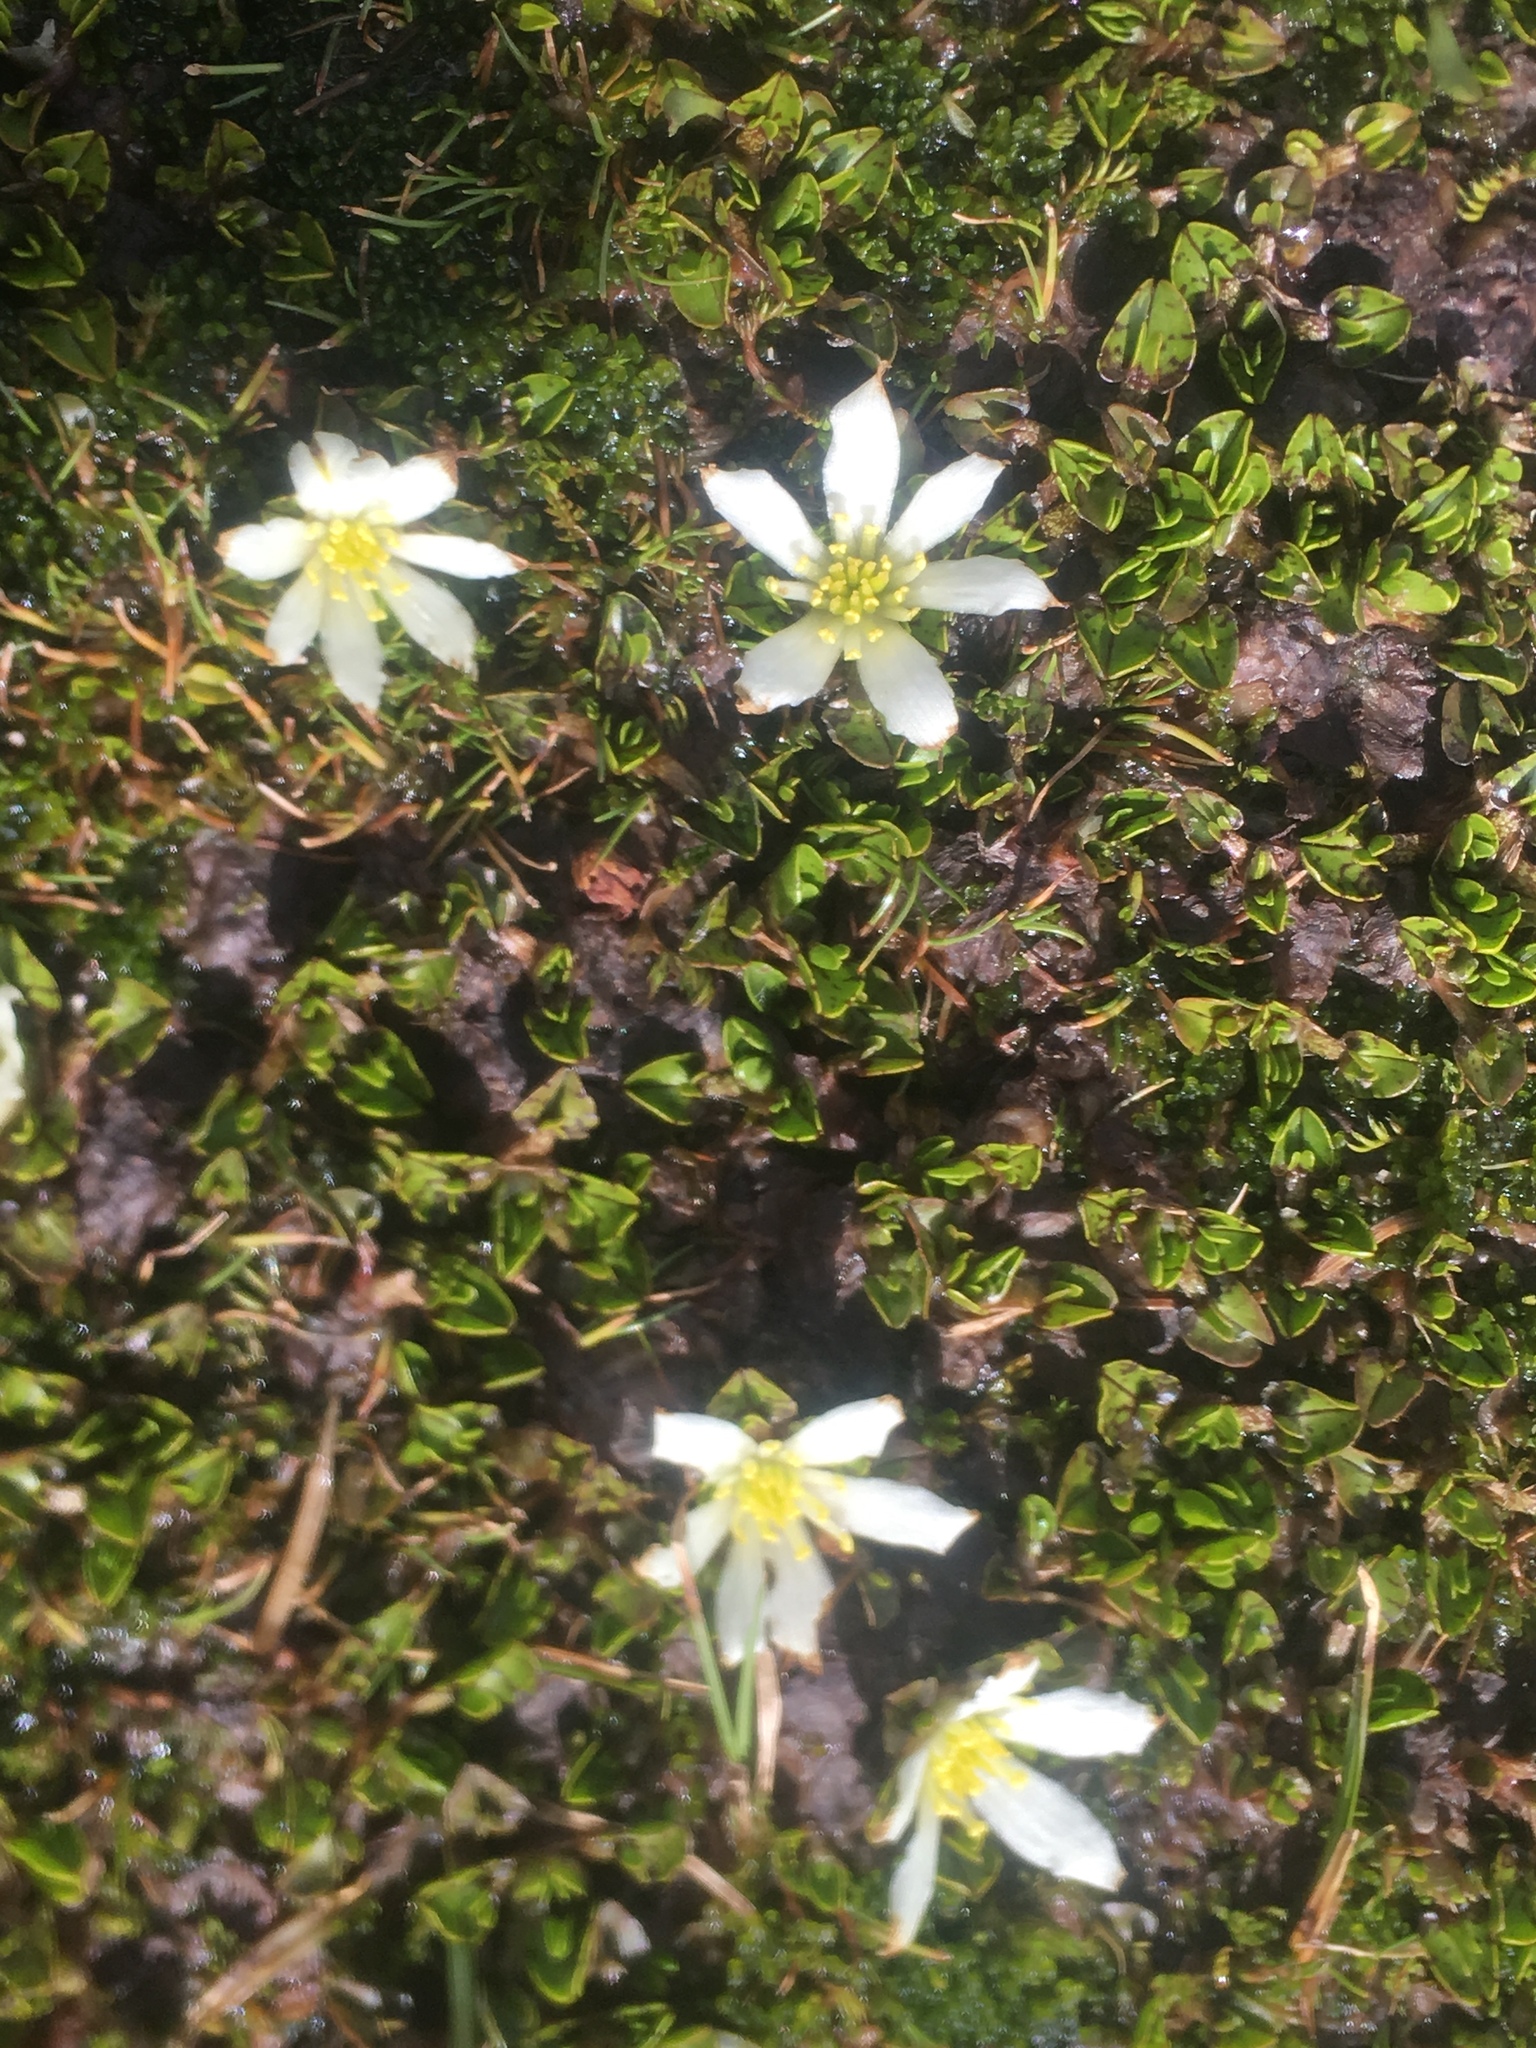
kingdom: Plantae
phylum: Tracheophyta
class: Magnoliopsida
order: Ranunculales
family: Ranunculaceae
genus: Caltha
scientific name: Caltha obtusa
